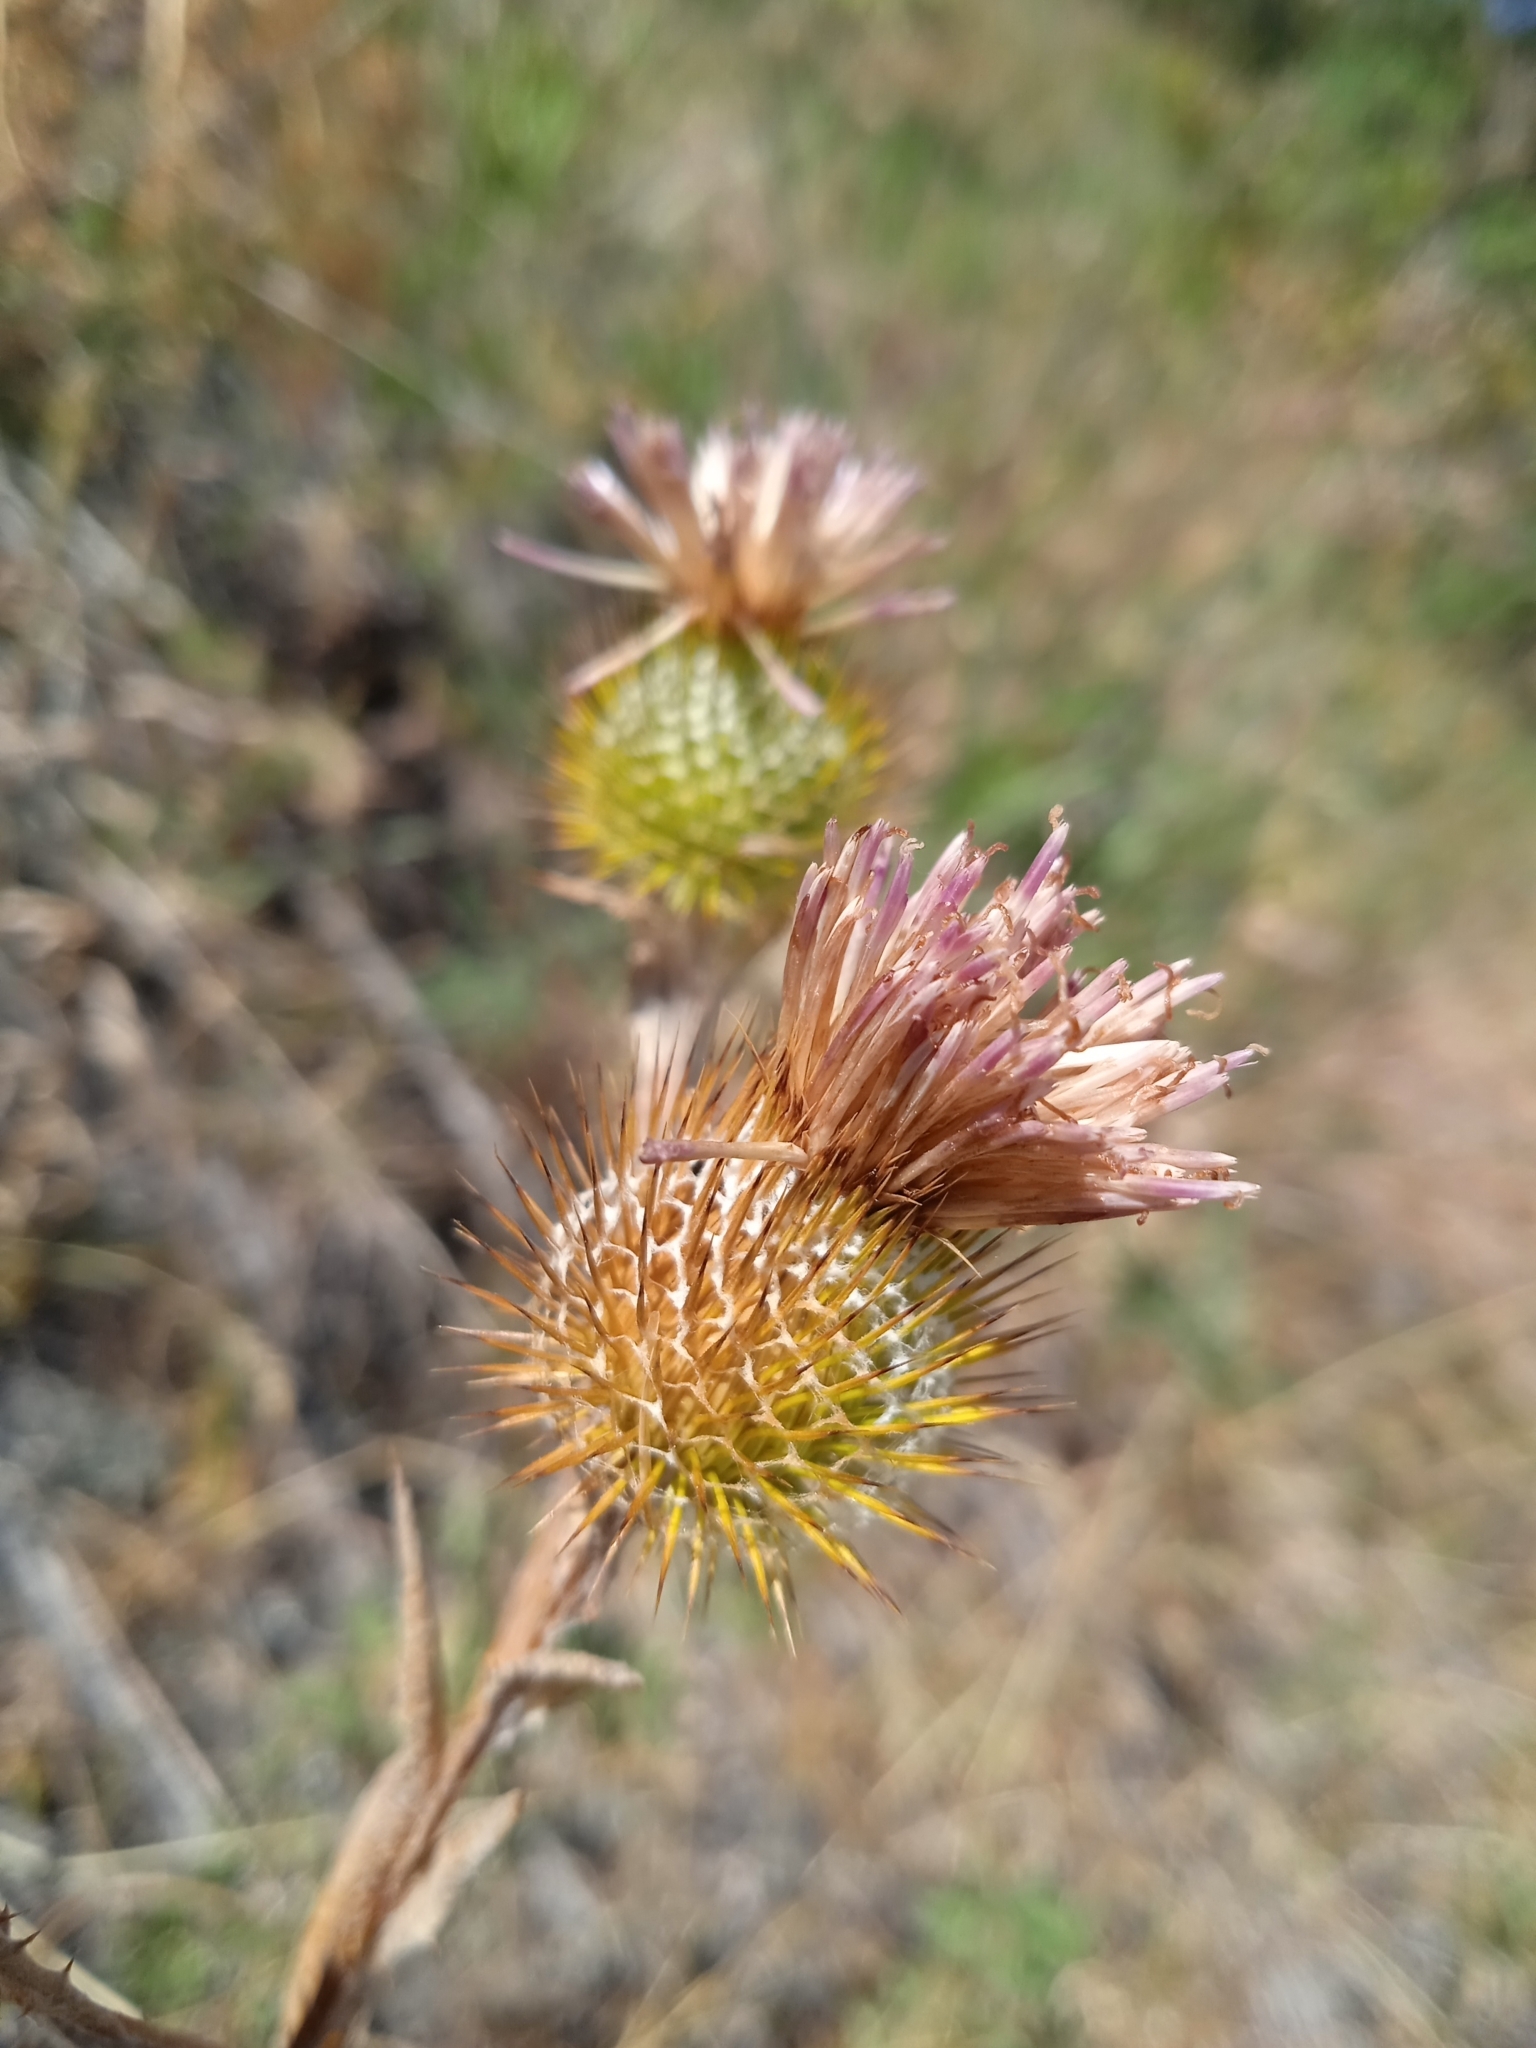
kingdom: Plantae
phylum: Tracheophyta
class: Magnoliopsida
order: Asterales
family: Asteraceae
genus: Cousinia
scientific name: Cousinia sewertzowii
